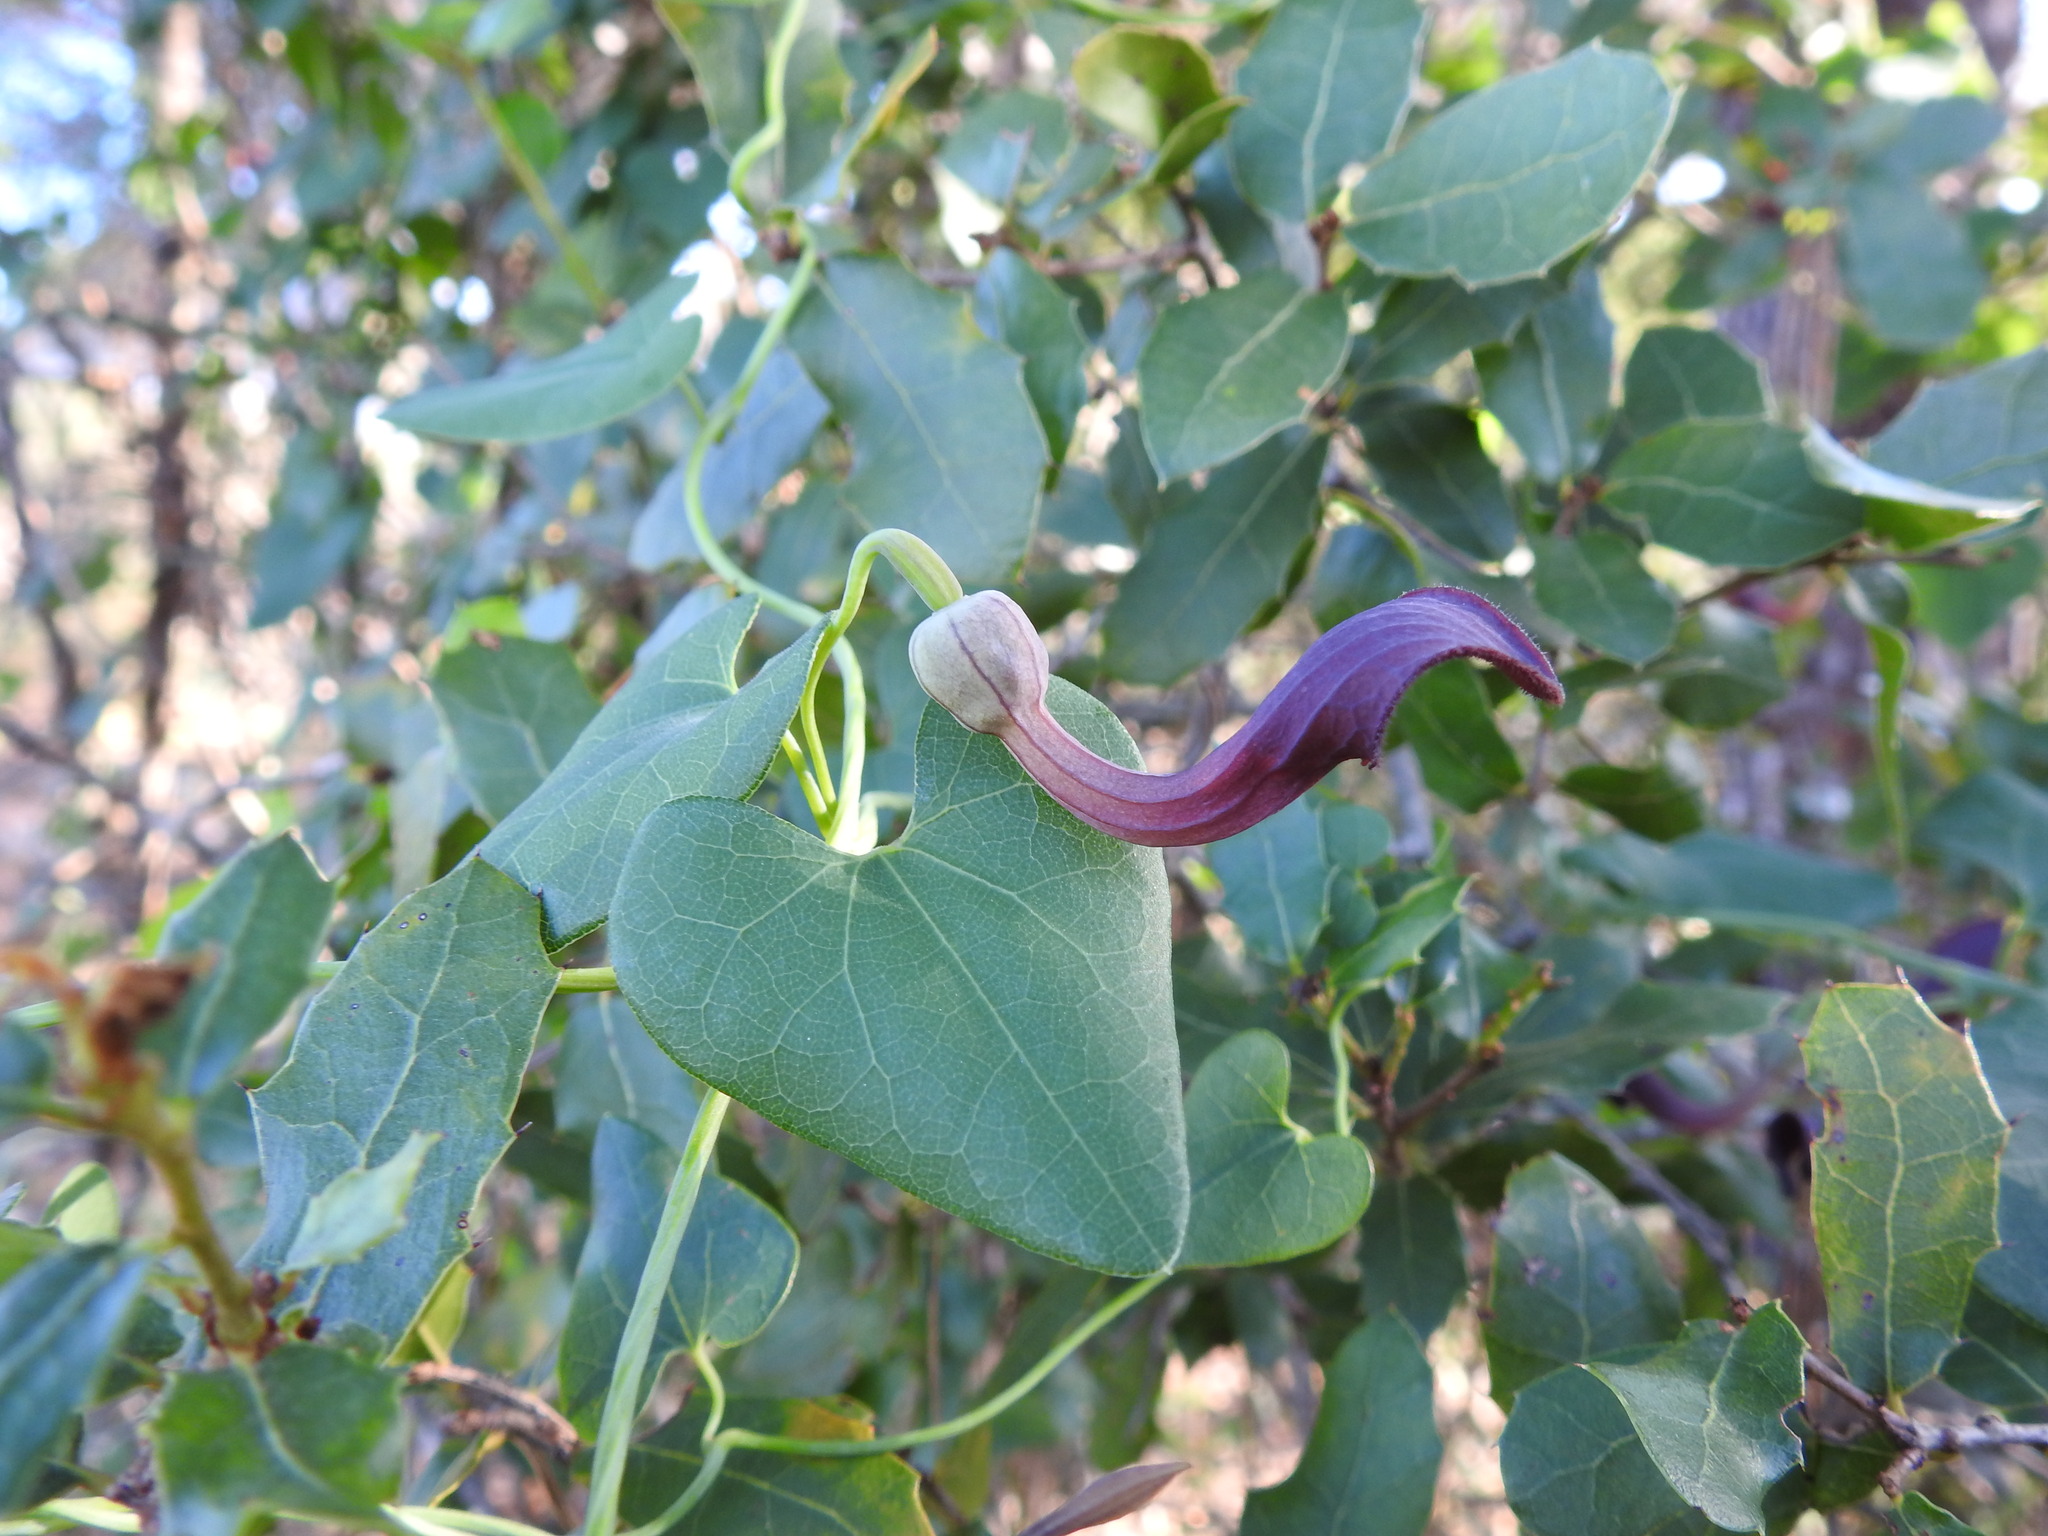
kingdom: Plantae
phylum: Tracheophyta
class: Magnoliopsida
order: Piperales
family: Aristolochiaceae
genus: Aristolochia
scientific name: Aristolochia baetica
